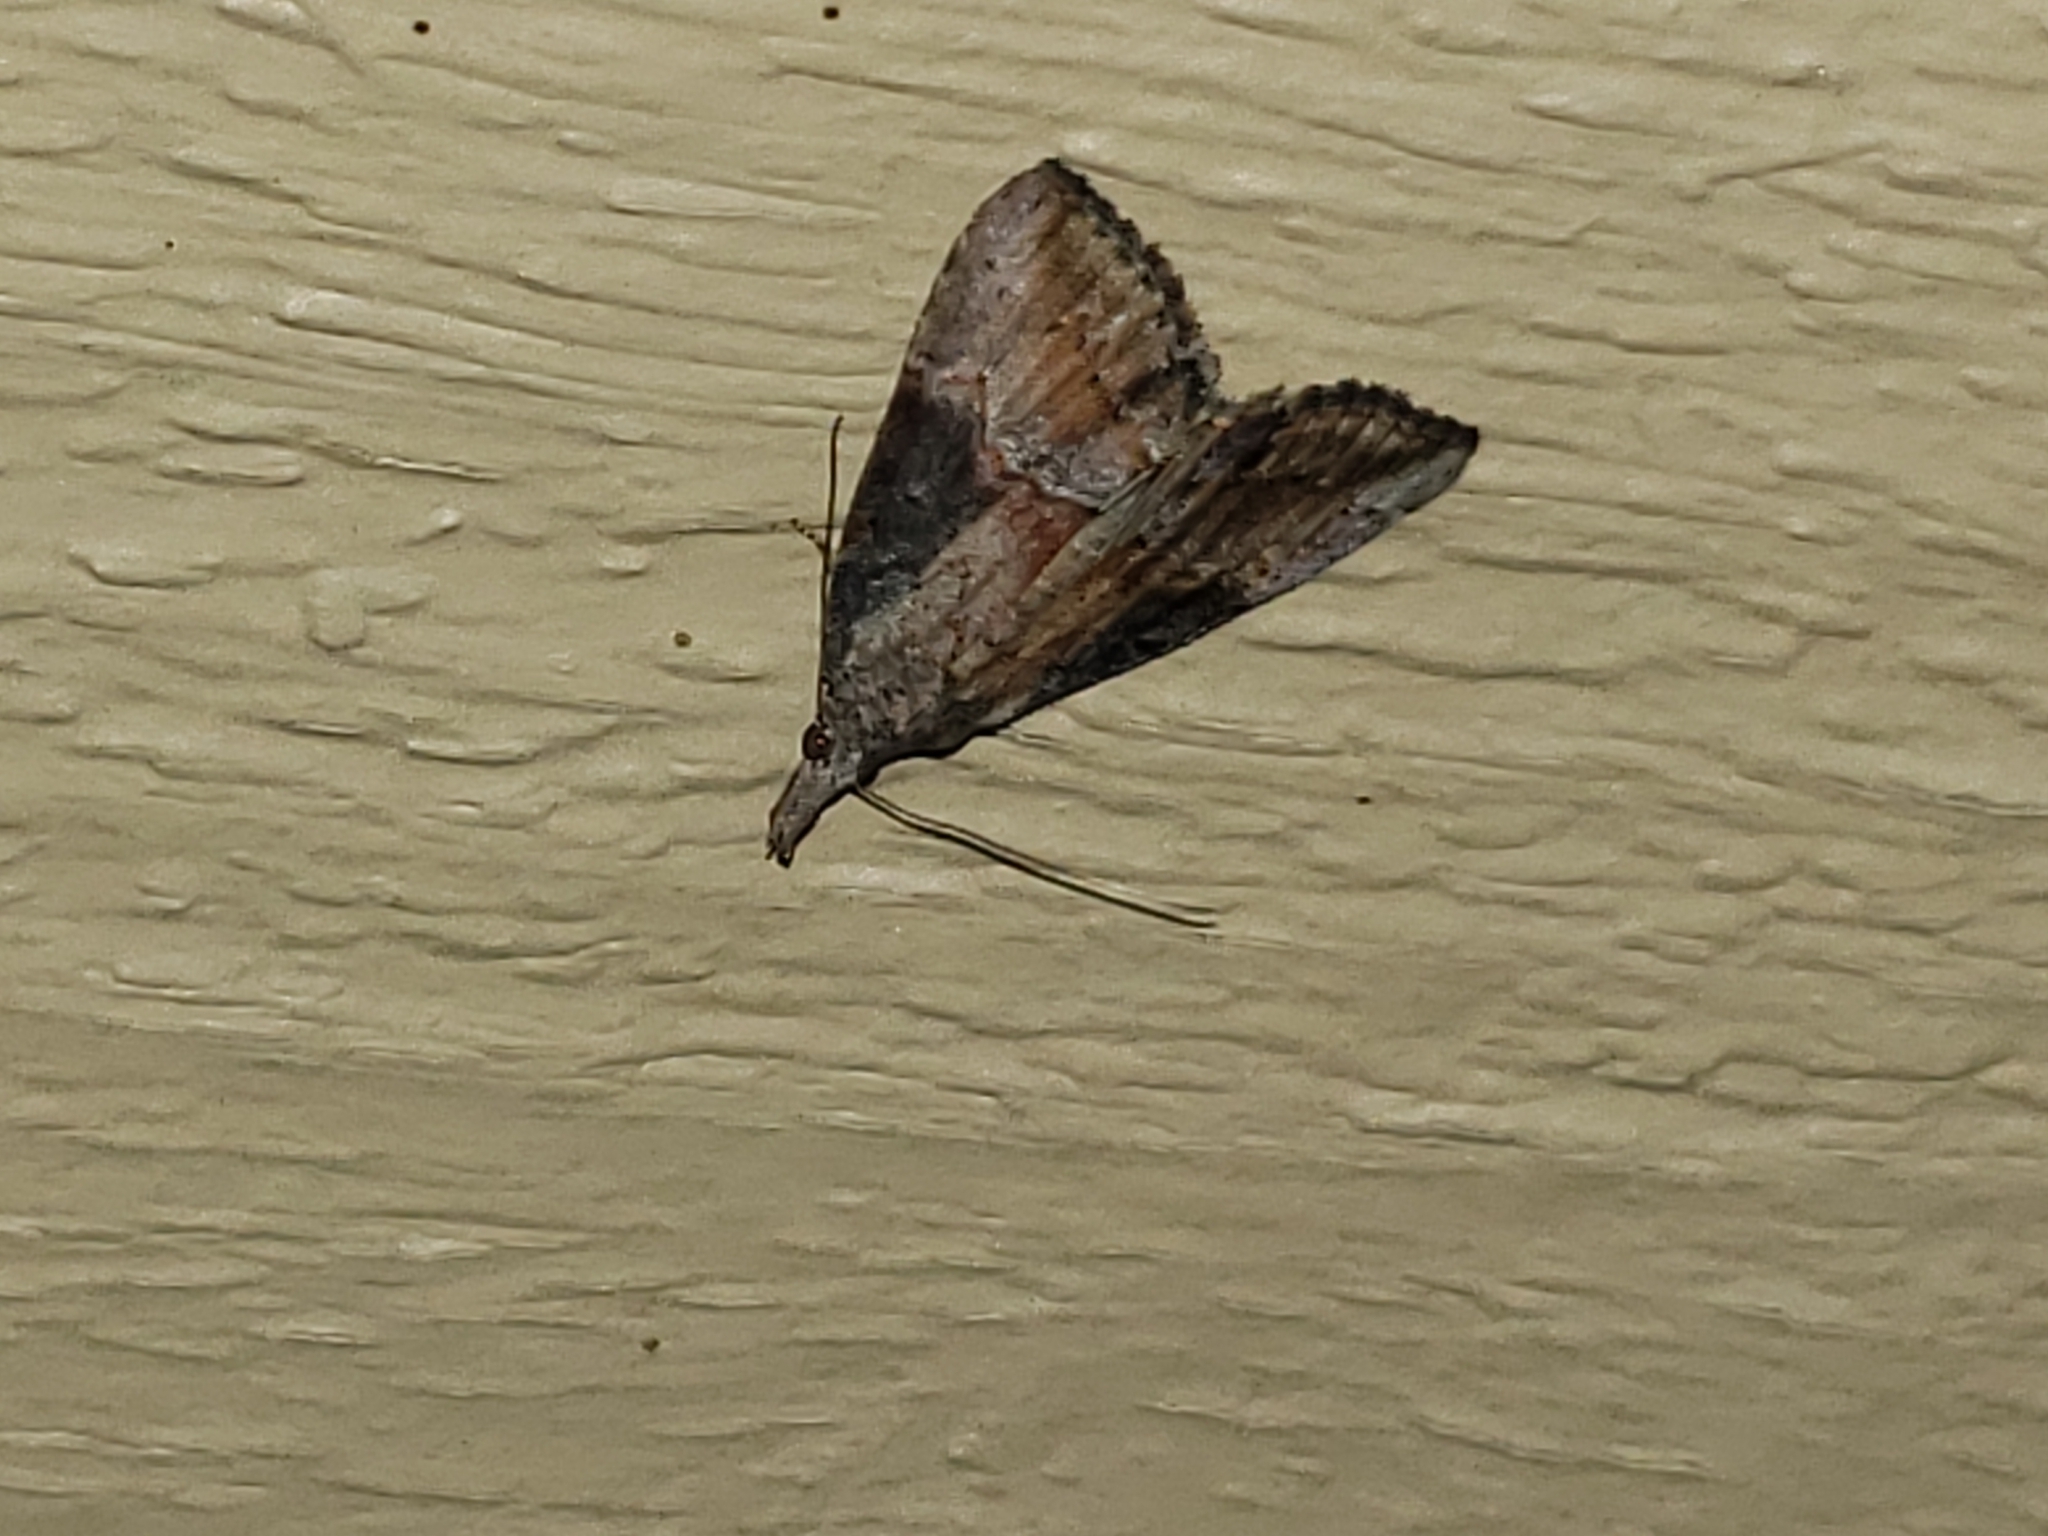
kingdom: Animalia
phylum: Arthropoda
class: Insecta
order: Lepidoptera
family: Erebidae
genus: Hypena
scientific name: Hypena scabra
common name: Green cloverworm
